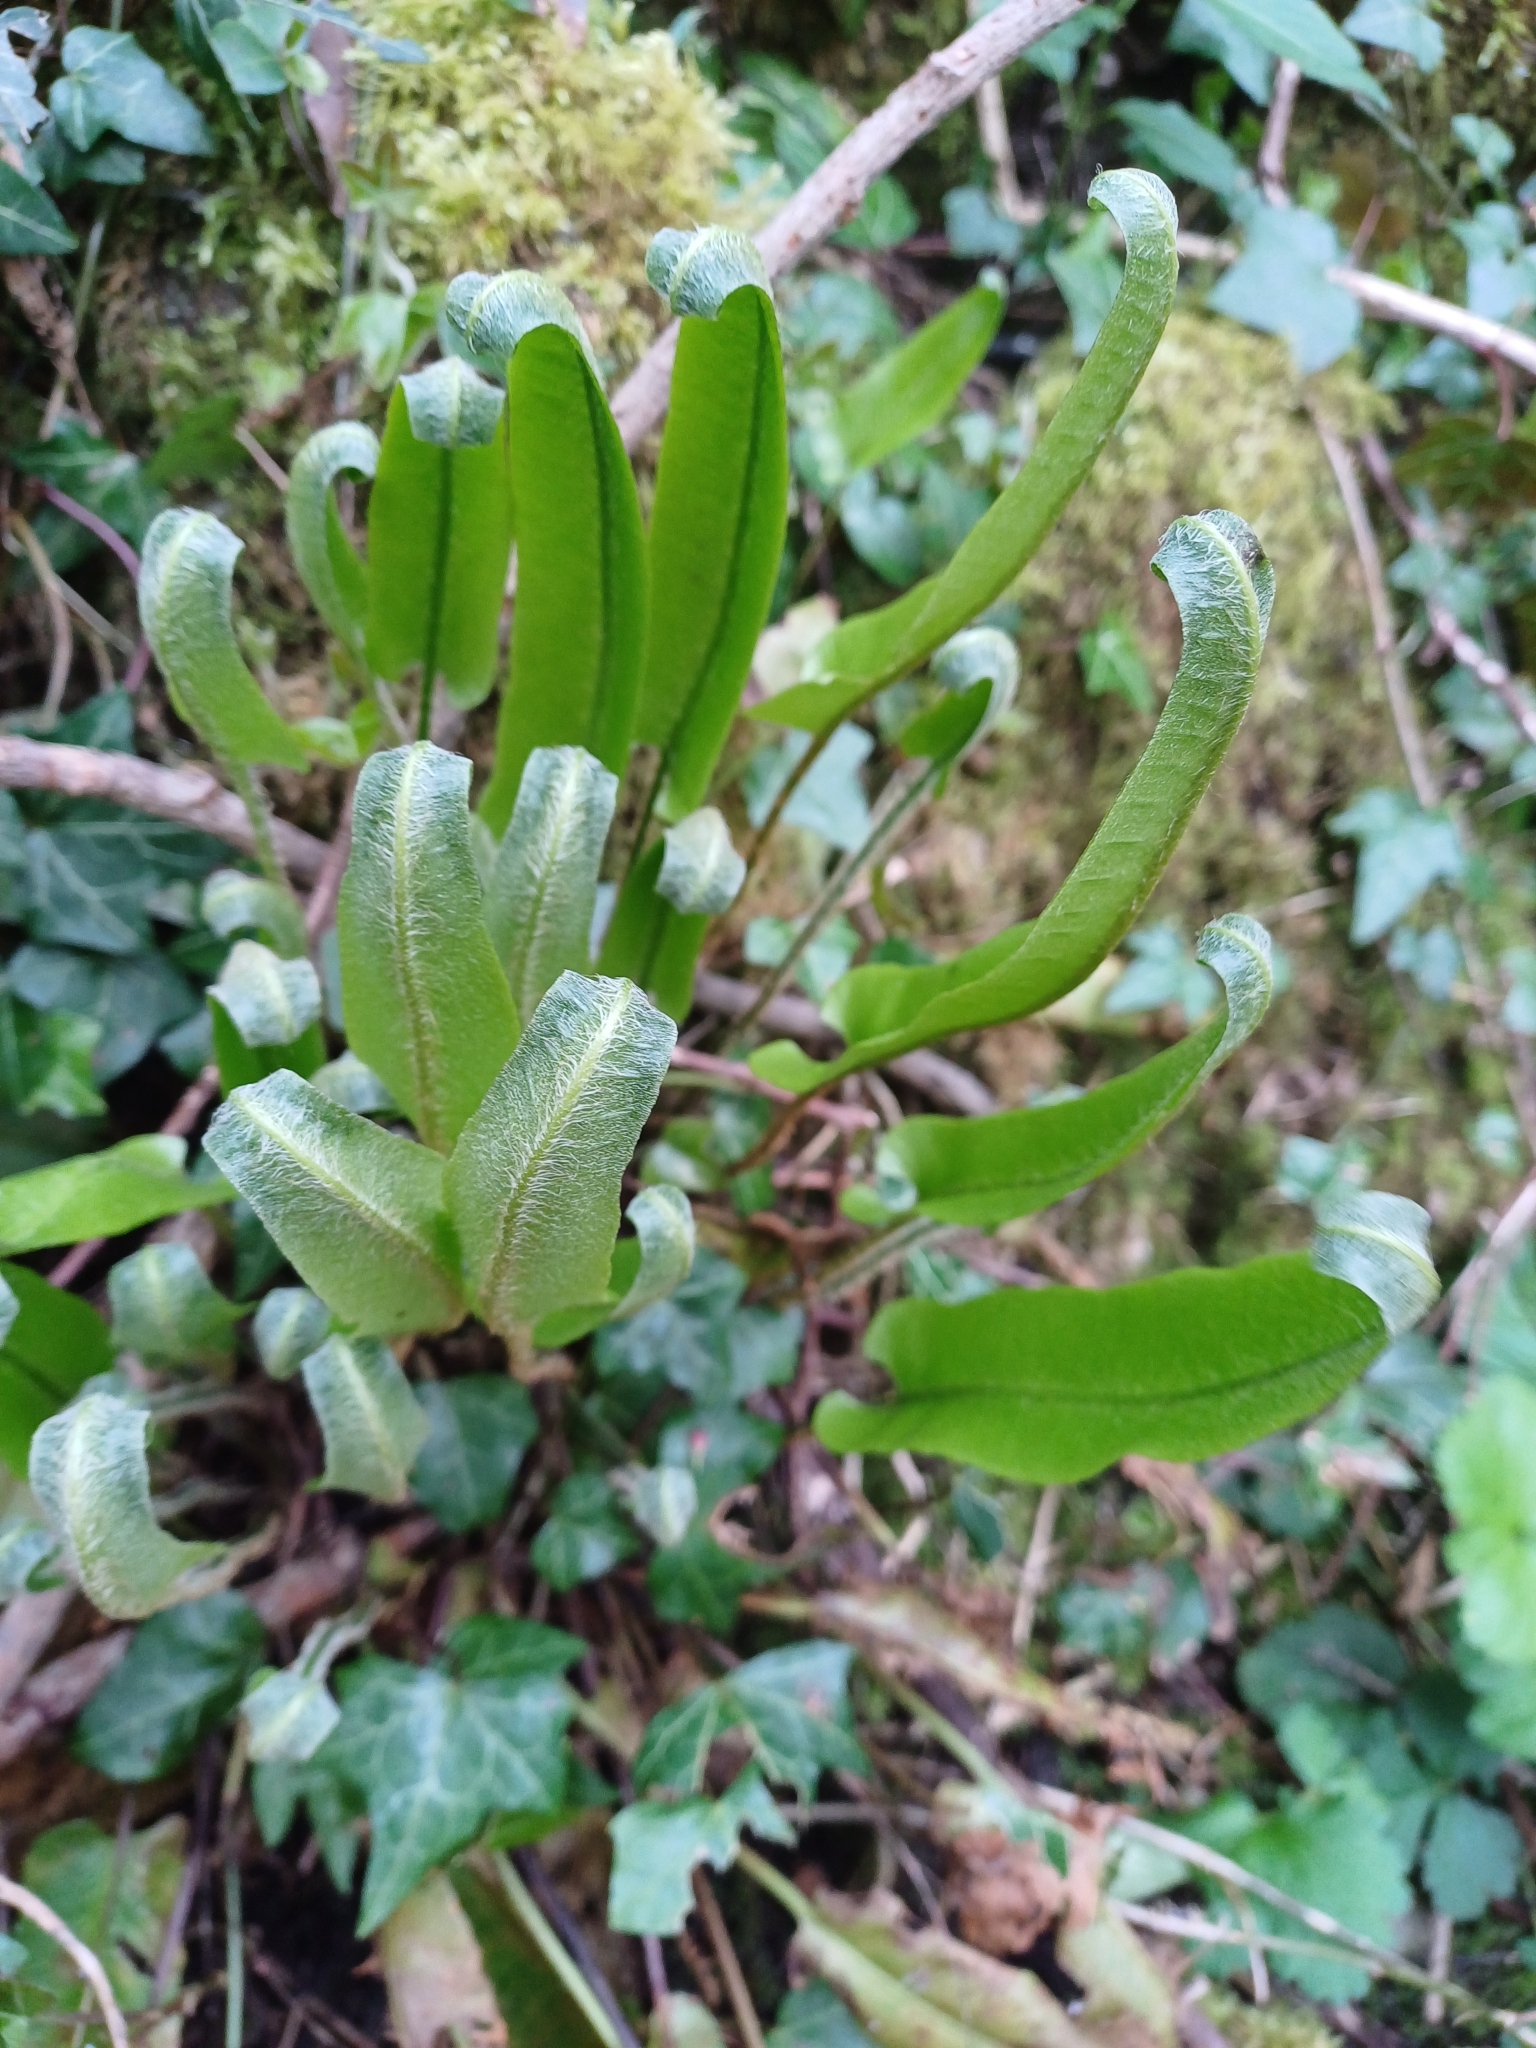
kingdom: Plantae
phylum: Tracheophyta
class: Polypodiopsida
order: Polypodiales
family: Aspleniaceae
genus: Asplenium
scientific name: Asplenium scolopendrium
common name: Hart's-tongue fern
